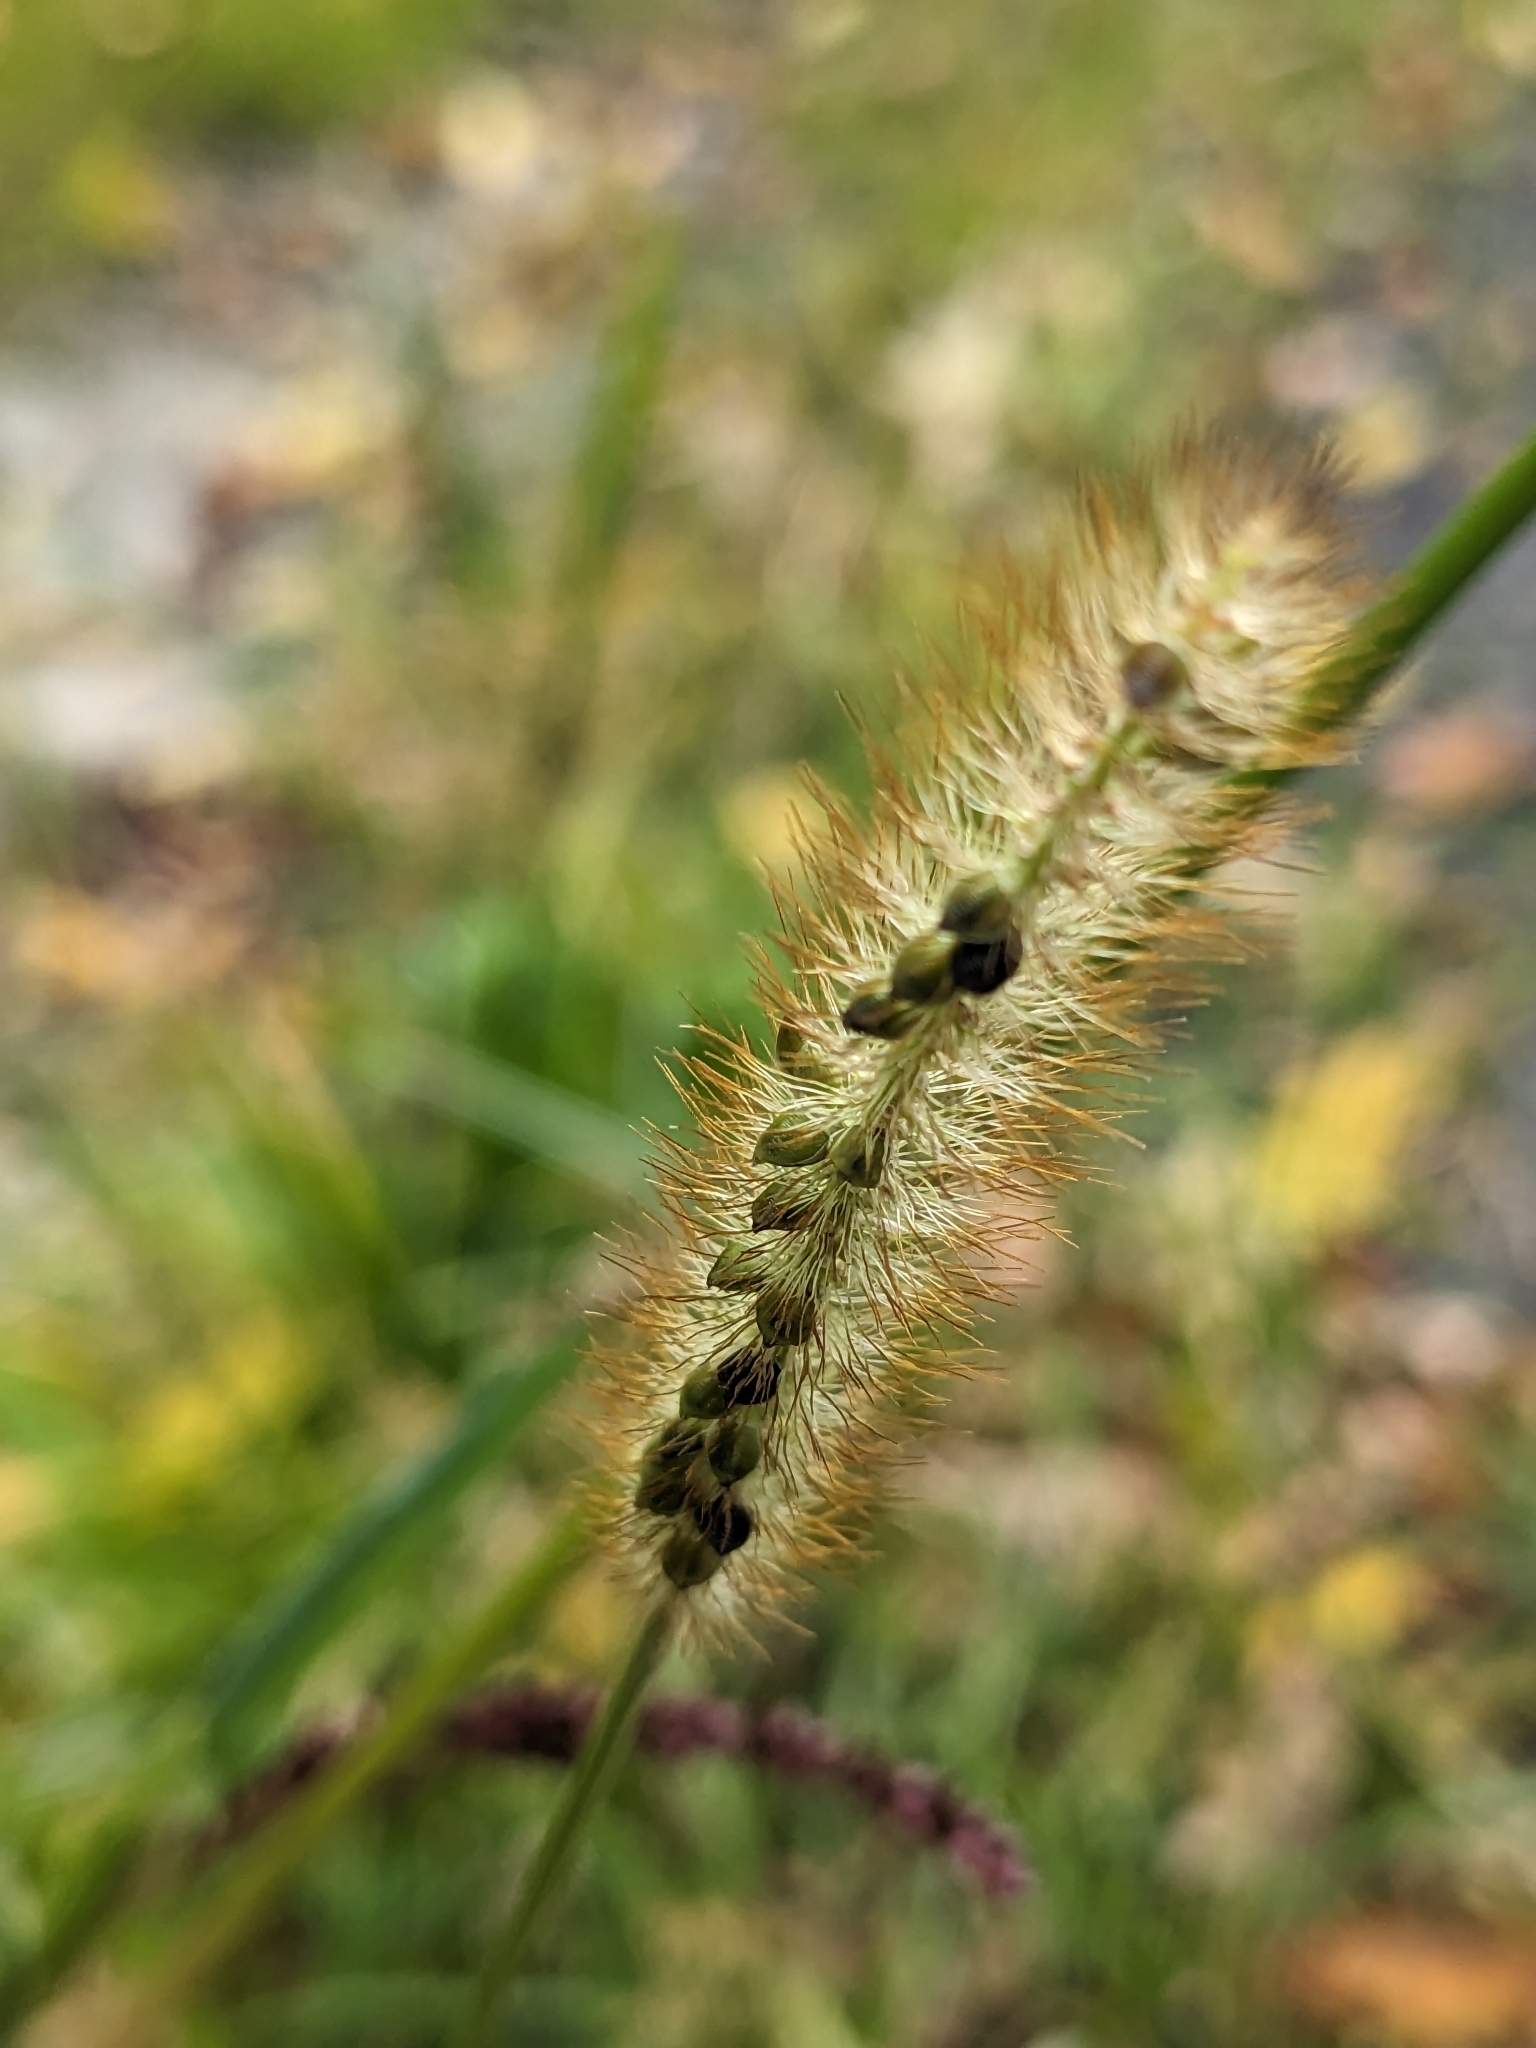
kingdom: Plantae
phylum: Tracheophyta
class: Liliopsida
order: Poales
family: Poaceae
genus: Setaria
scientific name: Setaria pumila
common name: Yellow bristle-grass
